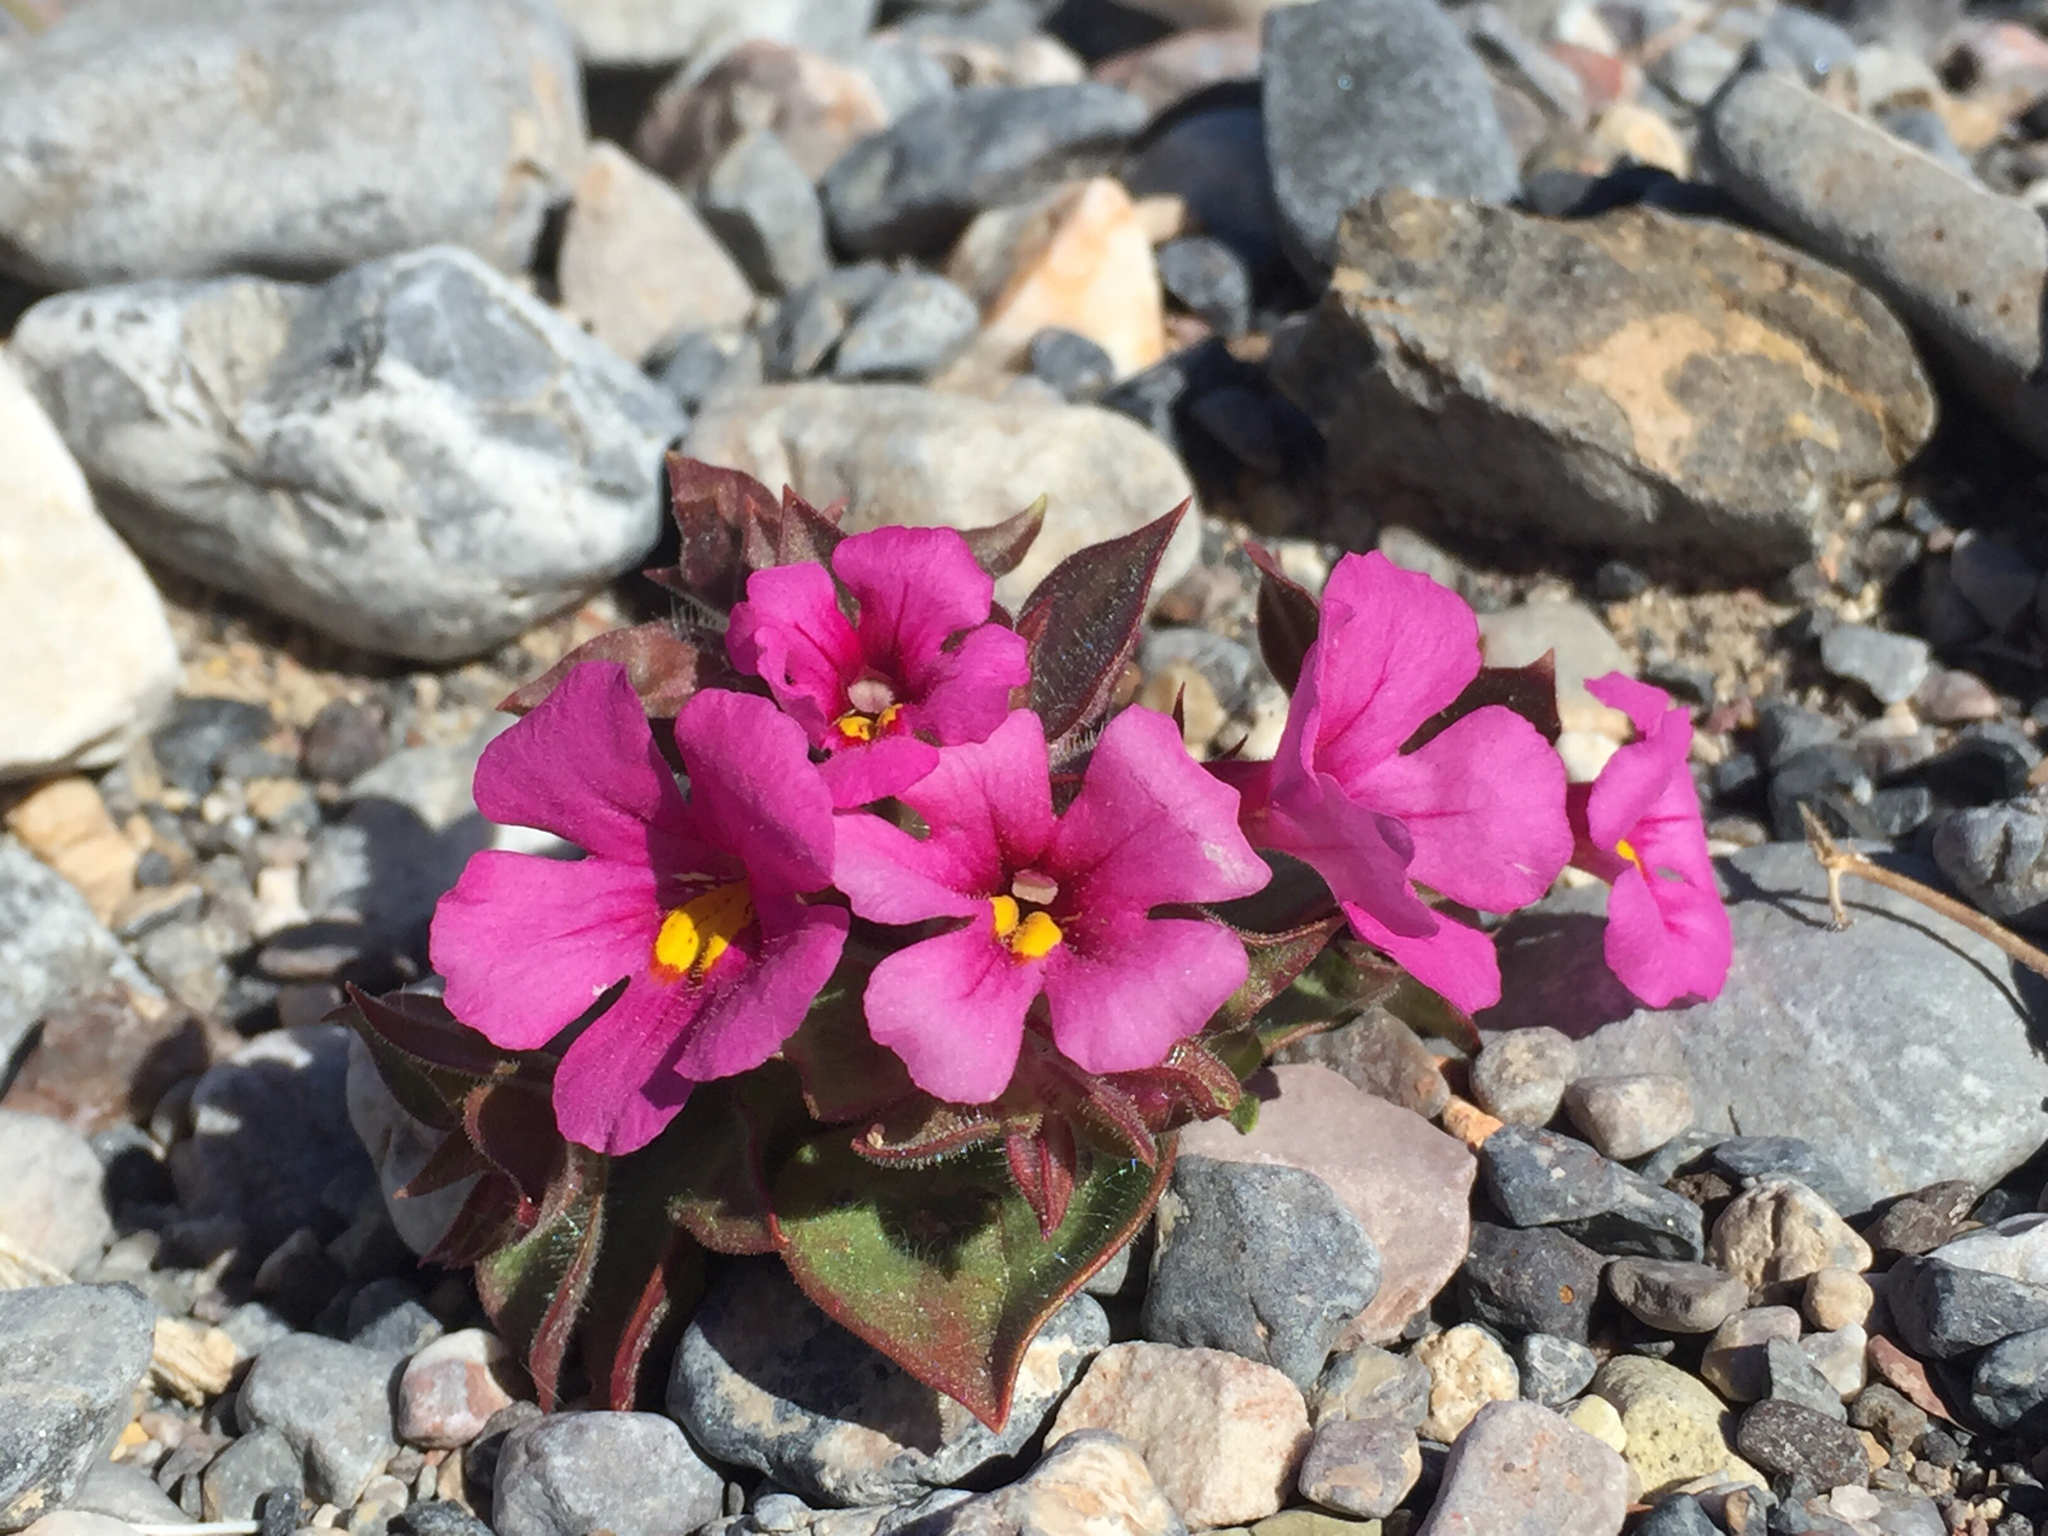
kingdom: Plantae
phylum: Tracheophyta
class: Magnoliopsida
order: Lamiales
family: Phrymaceae
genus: Diplacus
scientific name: Diplacus bigelovii
